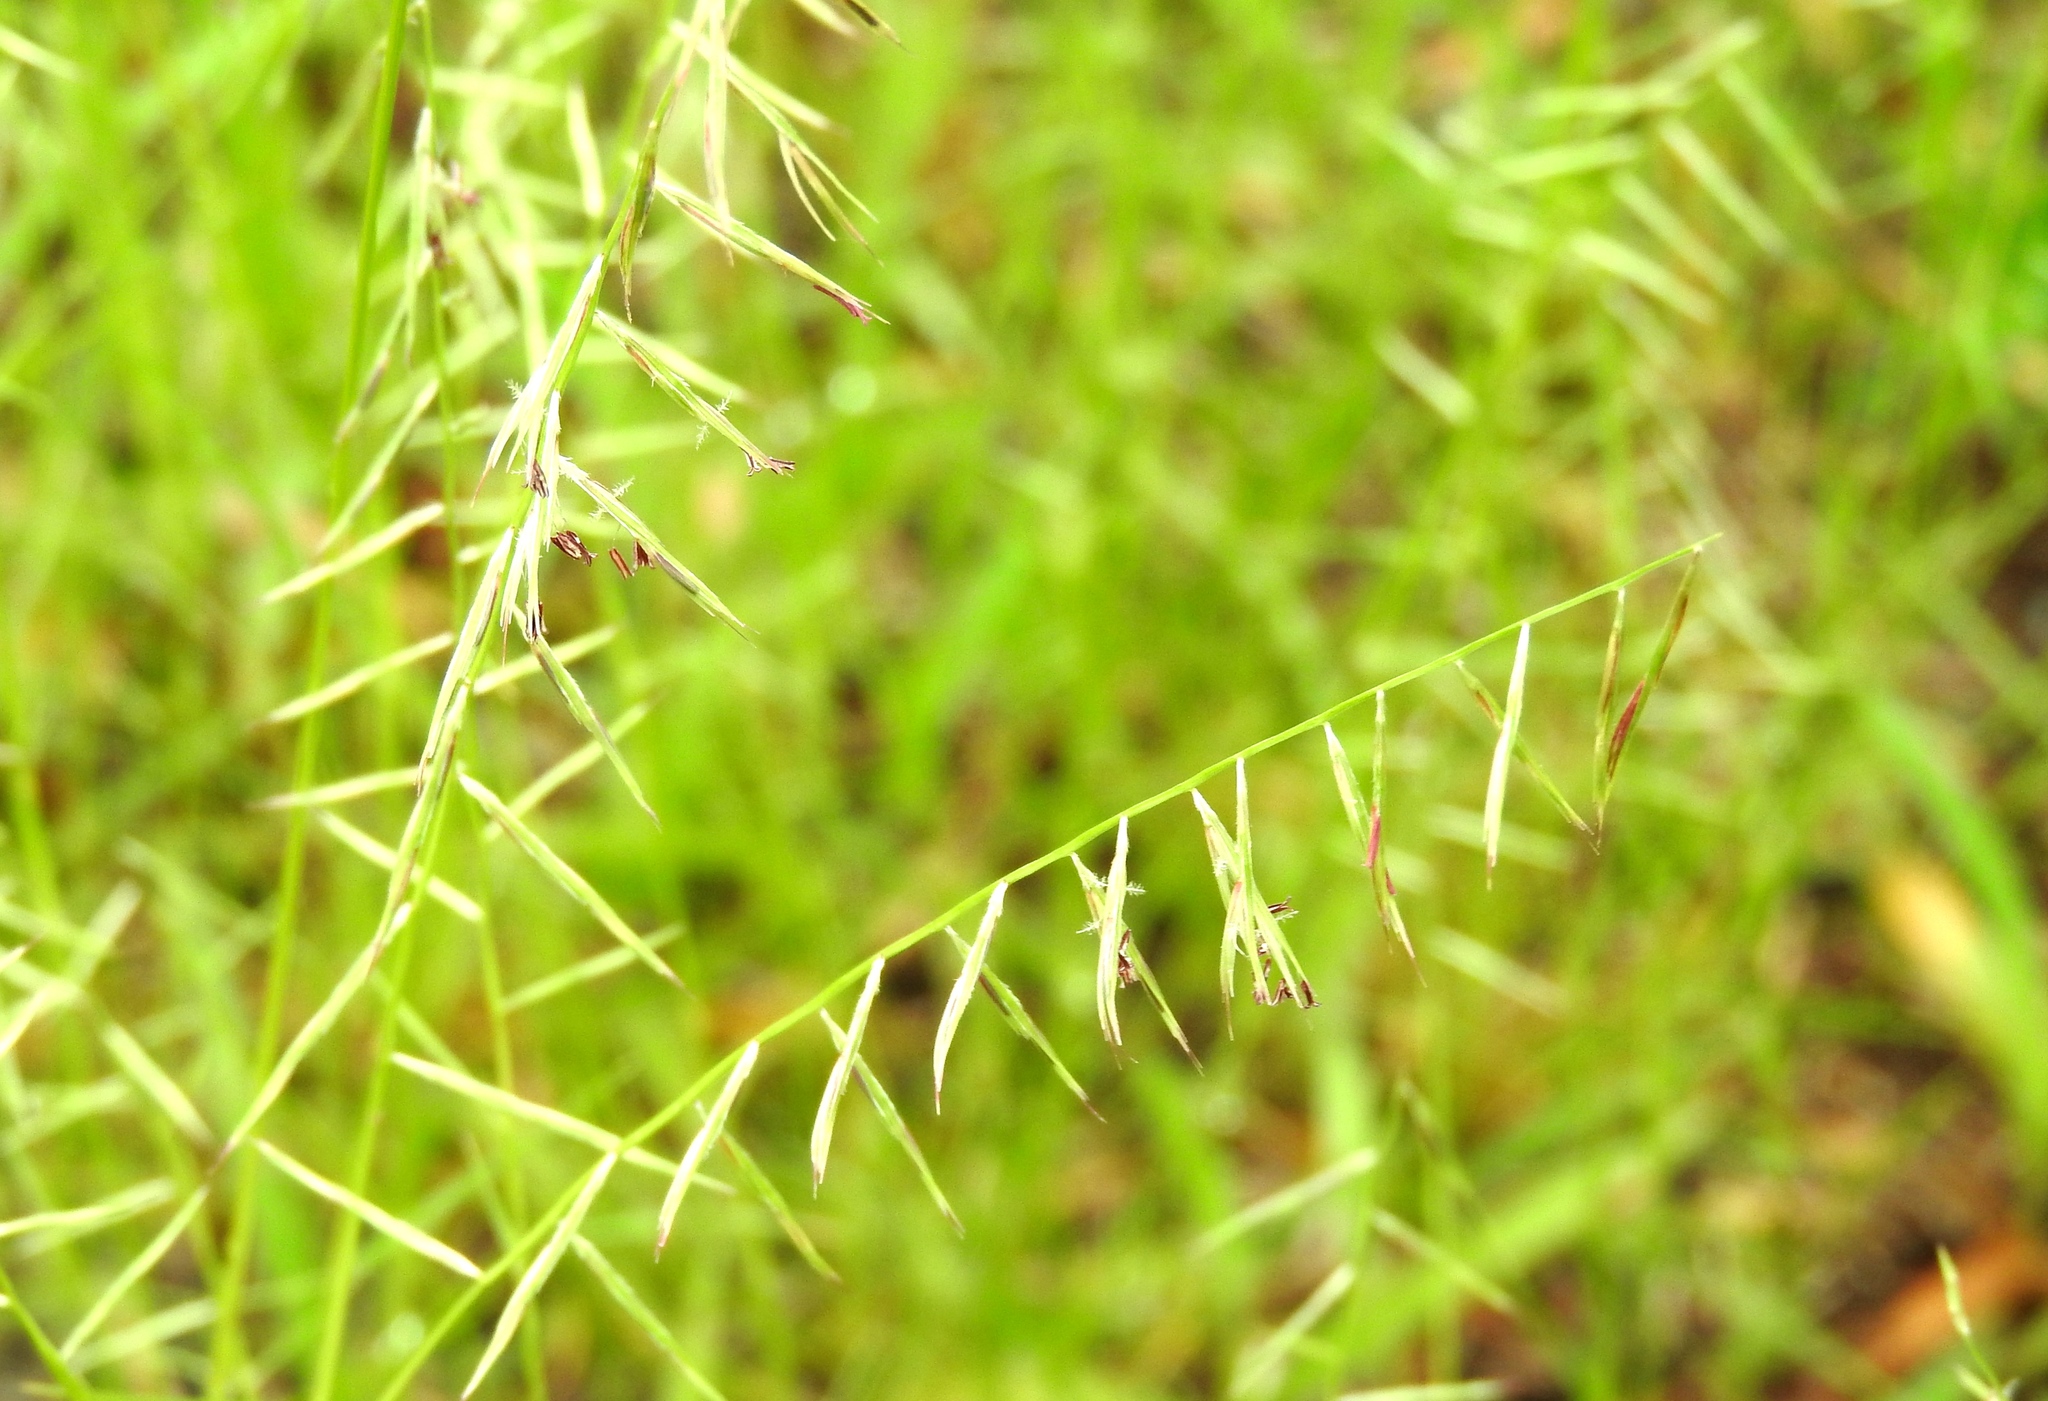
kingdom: Plantae
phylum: Tracheophyta
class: Liliopsida
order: Poales
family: Poaceae
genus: Bouteloua
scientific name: Bouteloua aristidoides
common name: Needle grama
